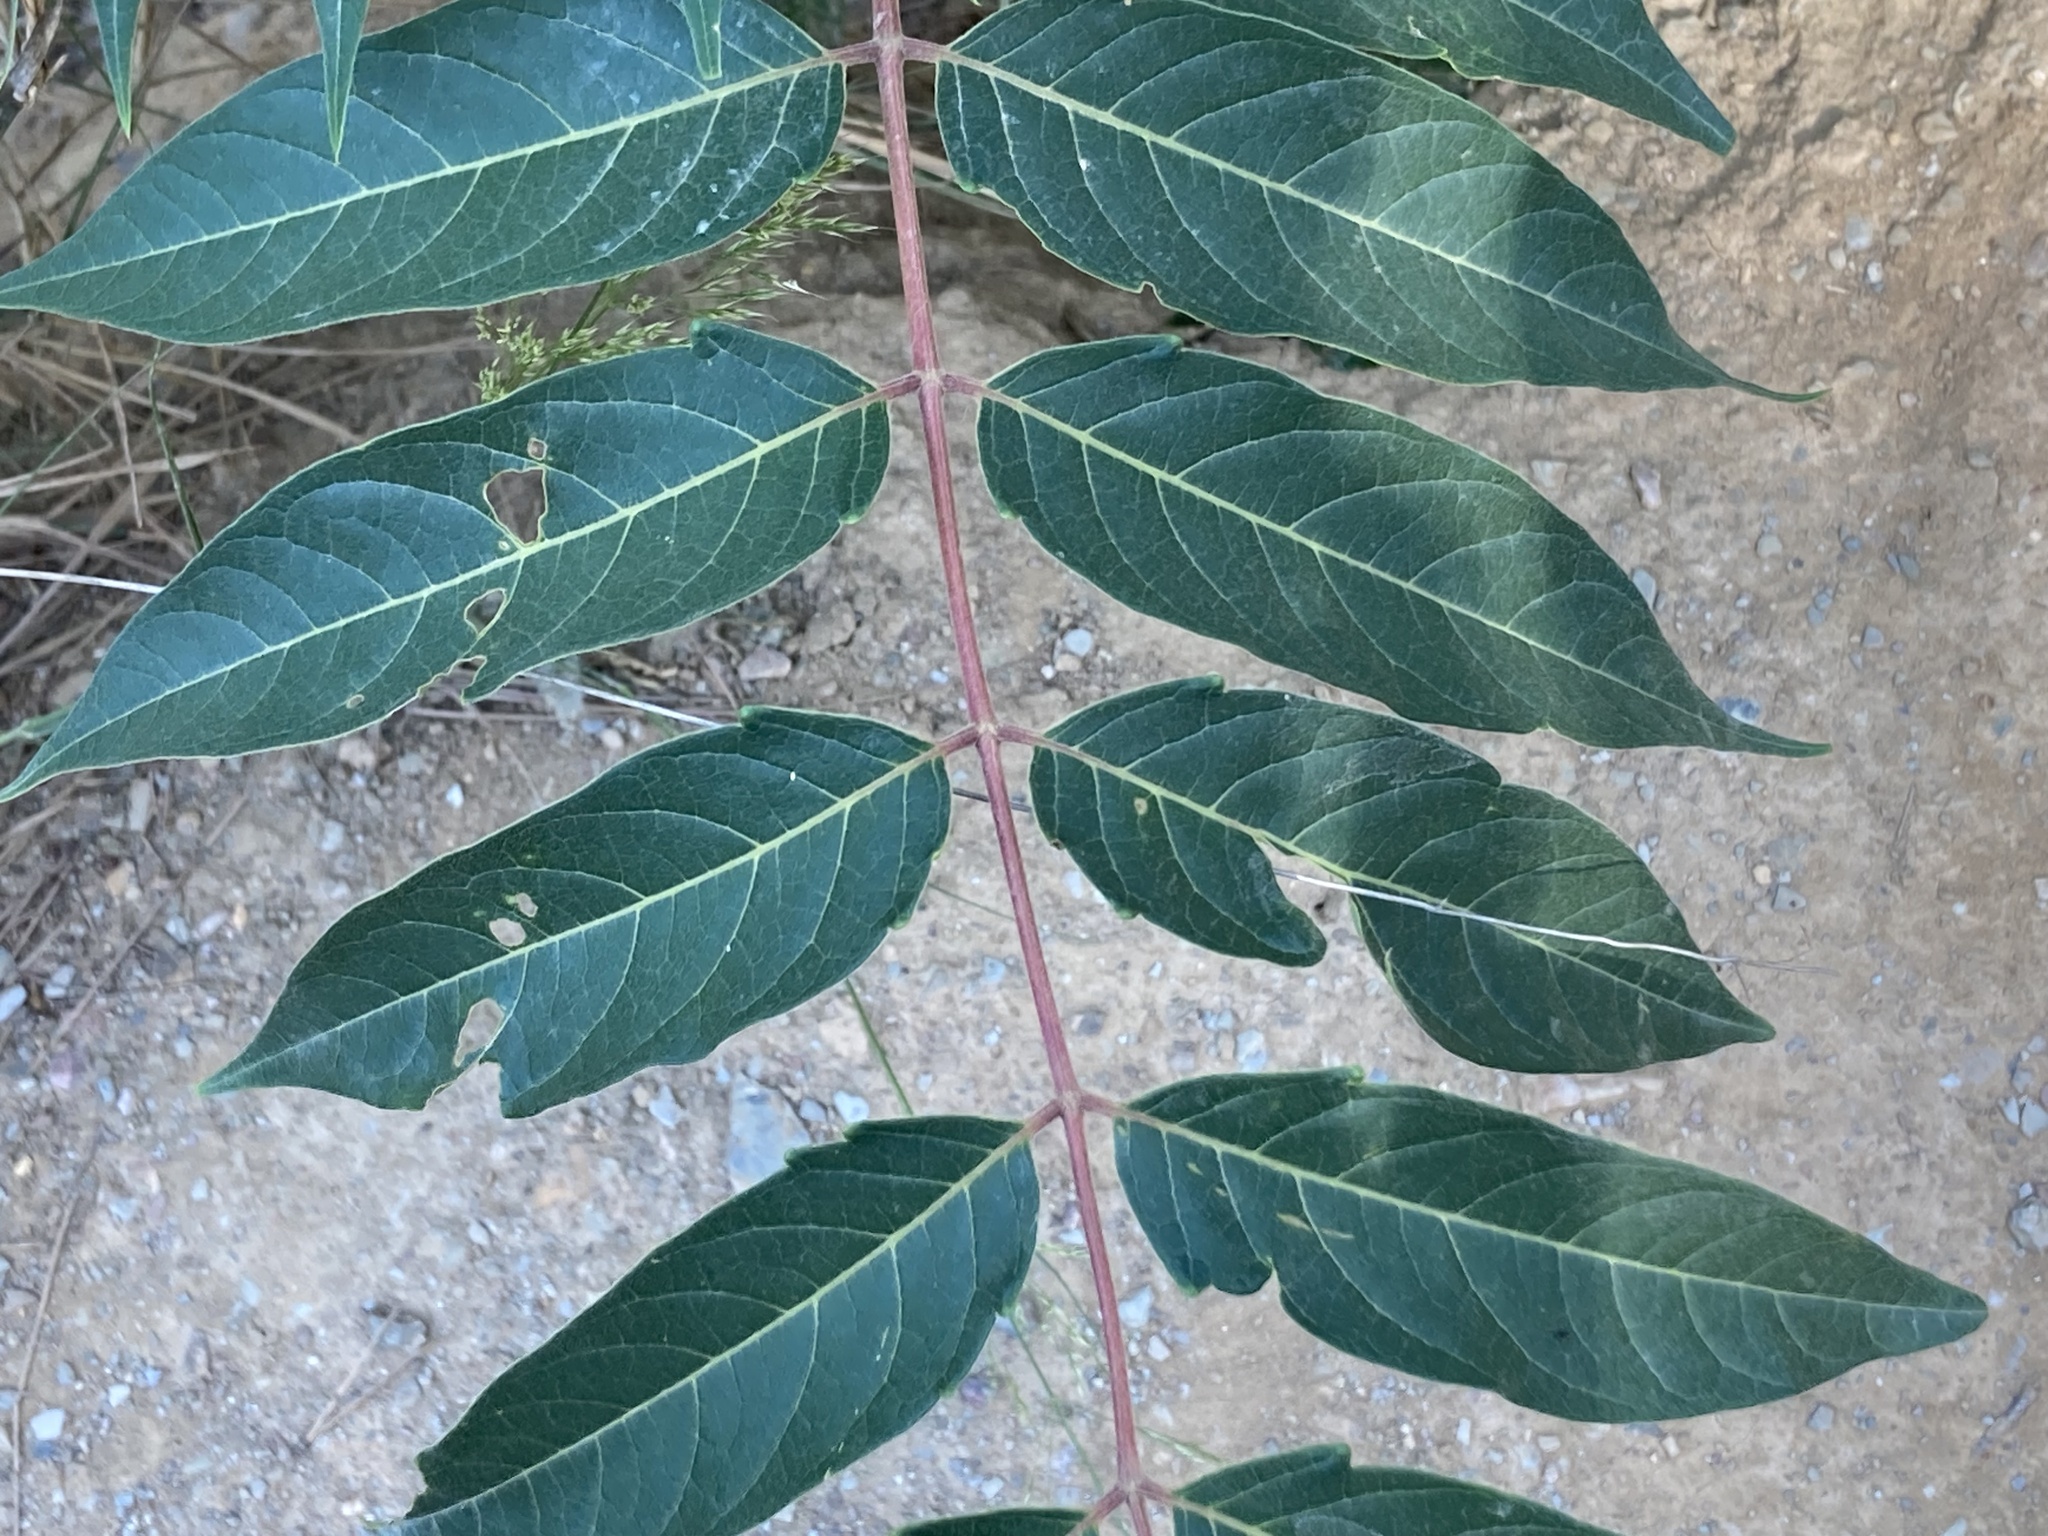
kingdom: Plantae
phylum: Tracheophyta
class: Magnoliopsida
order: Sapindales
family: Simaroubaceae
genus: Ailanthus
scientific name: Ailanthus altissima
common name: Tree-of-heaven
